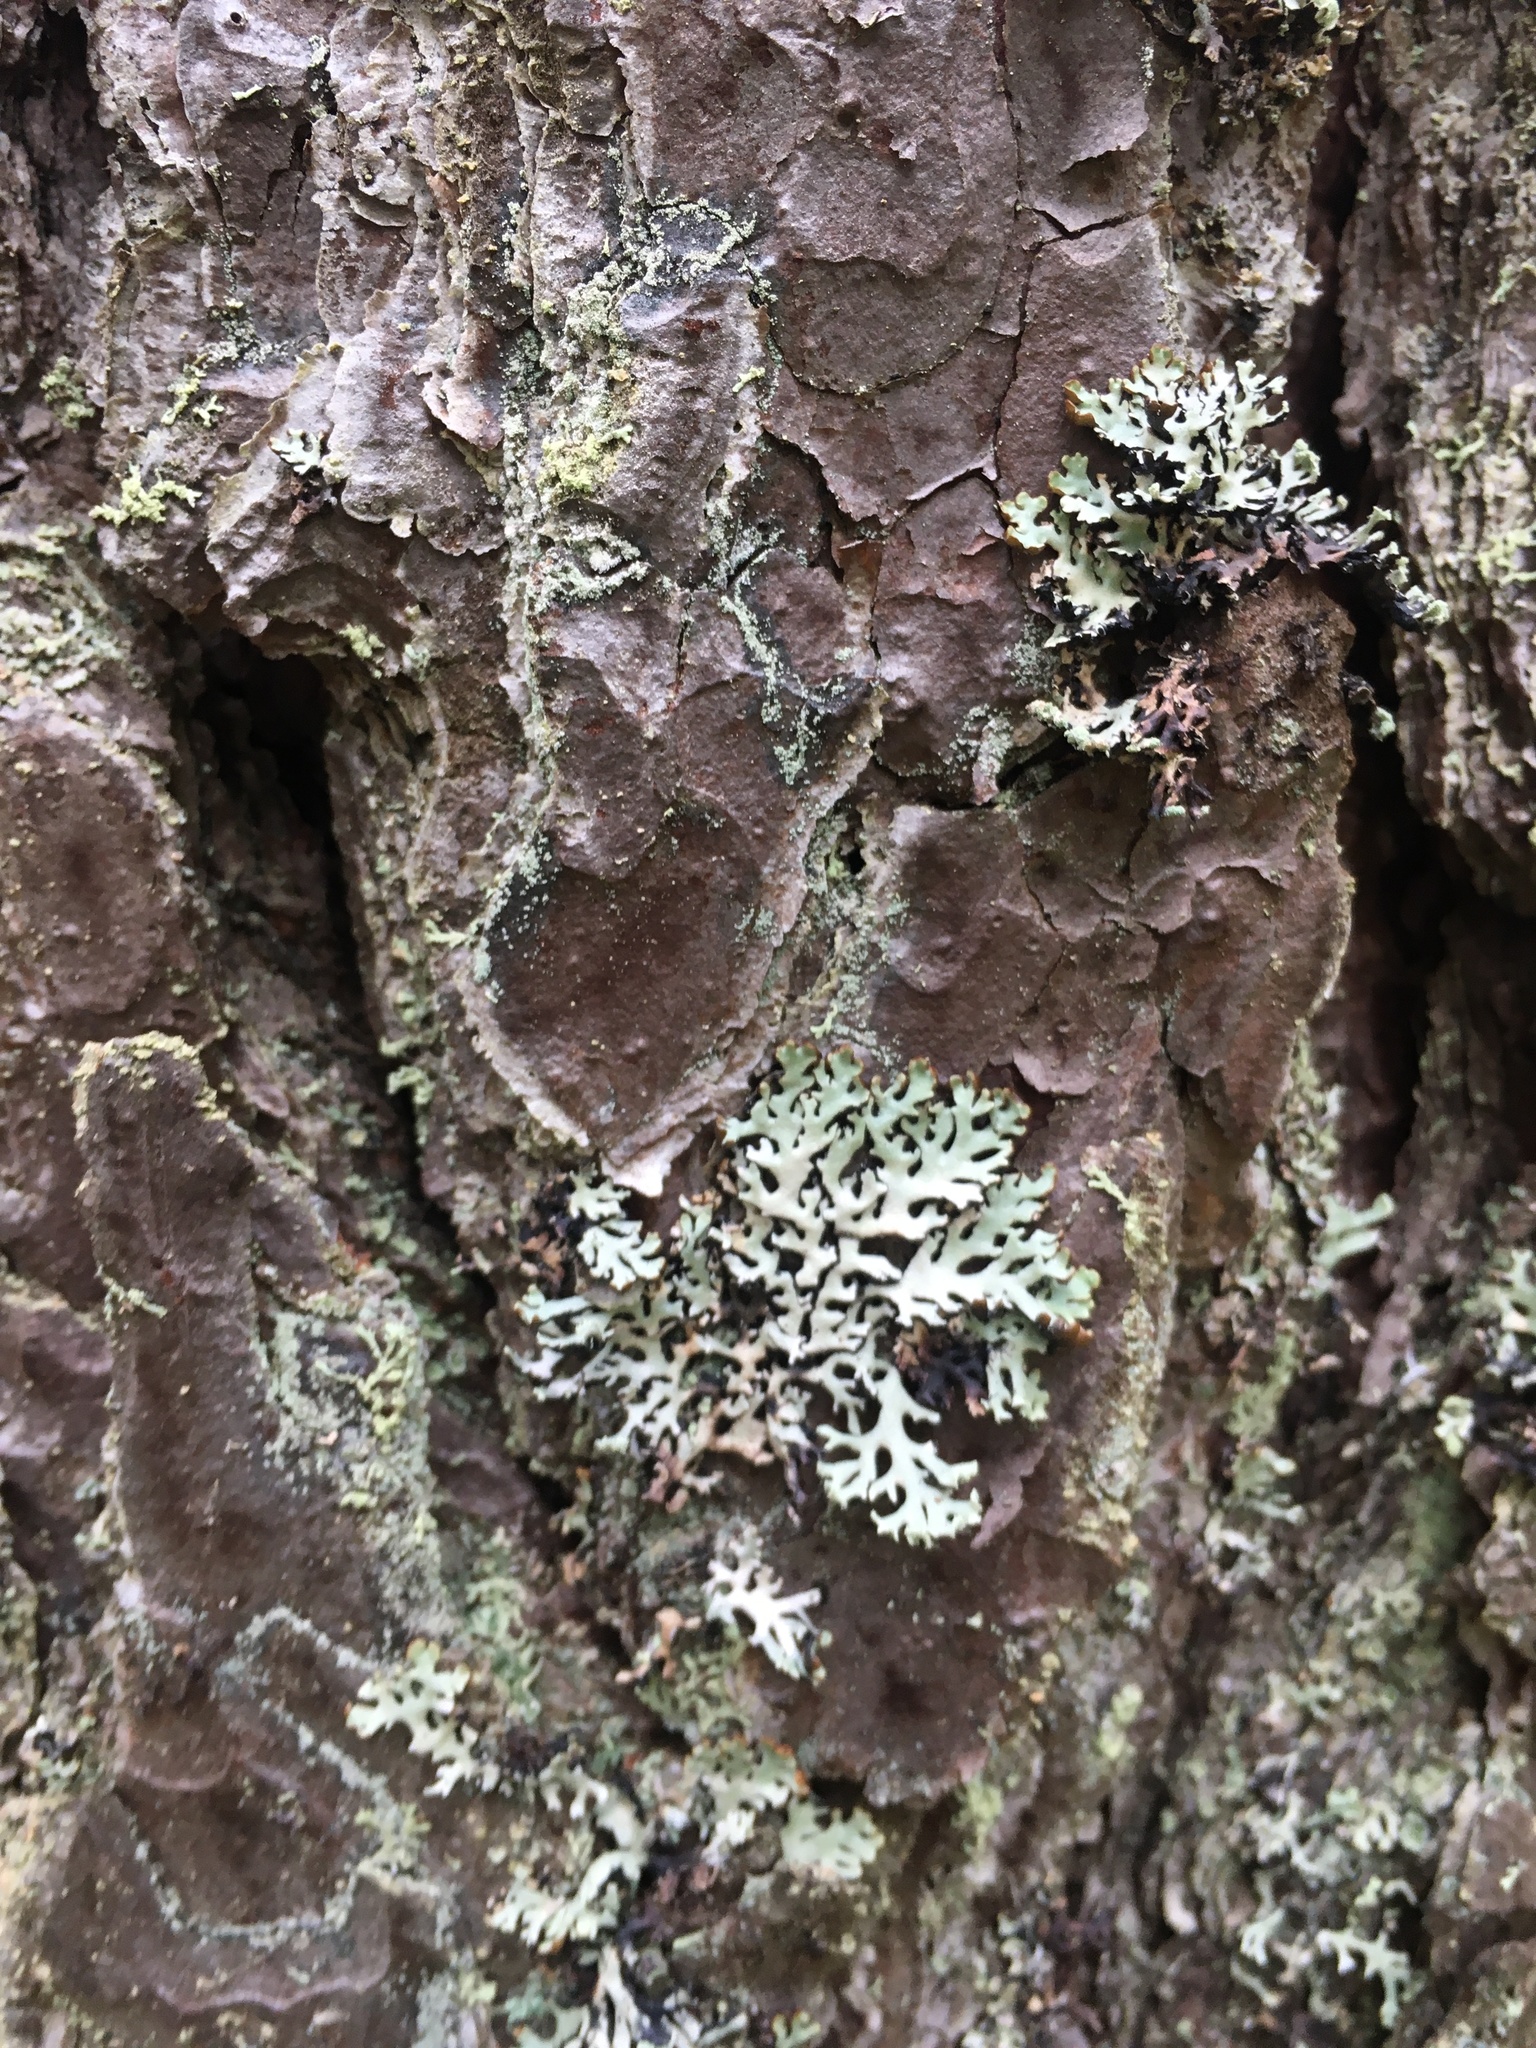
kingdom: Fungi
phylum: Ascomycota
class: Lecanoromycetes
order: Lecanorales
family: Parmeliaceae
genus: Hypogymnia
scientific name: Hypogymnia physodes
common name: Dark crottle
